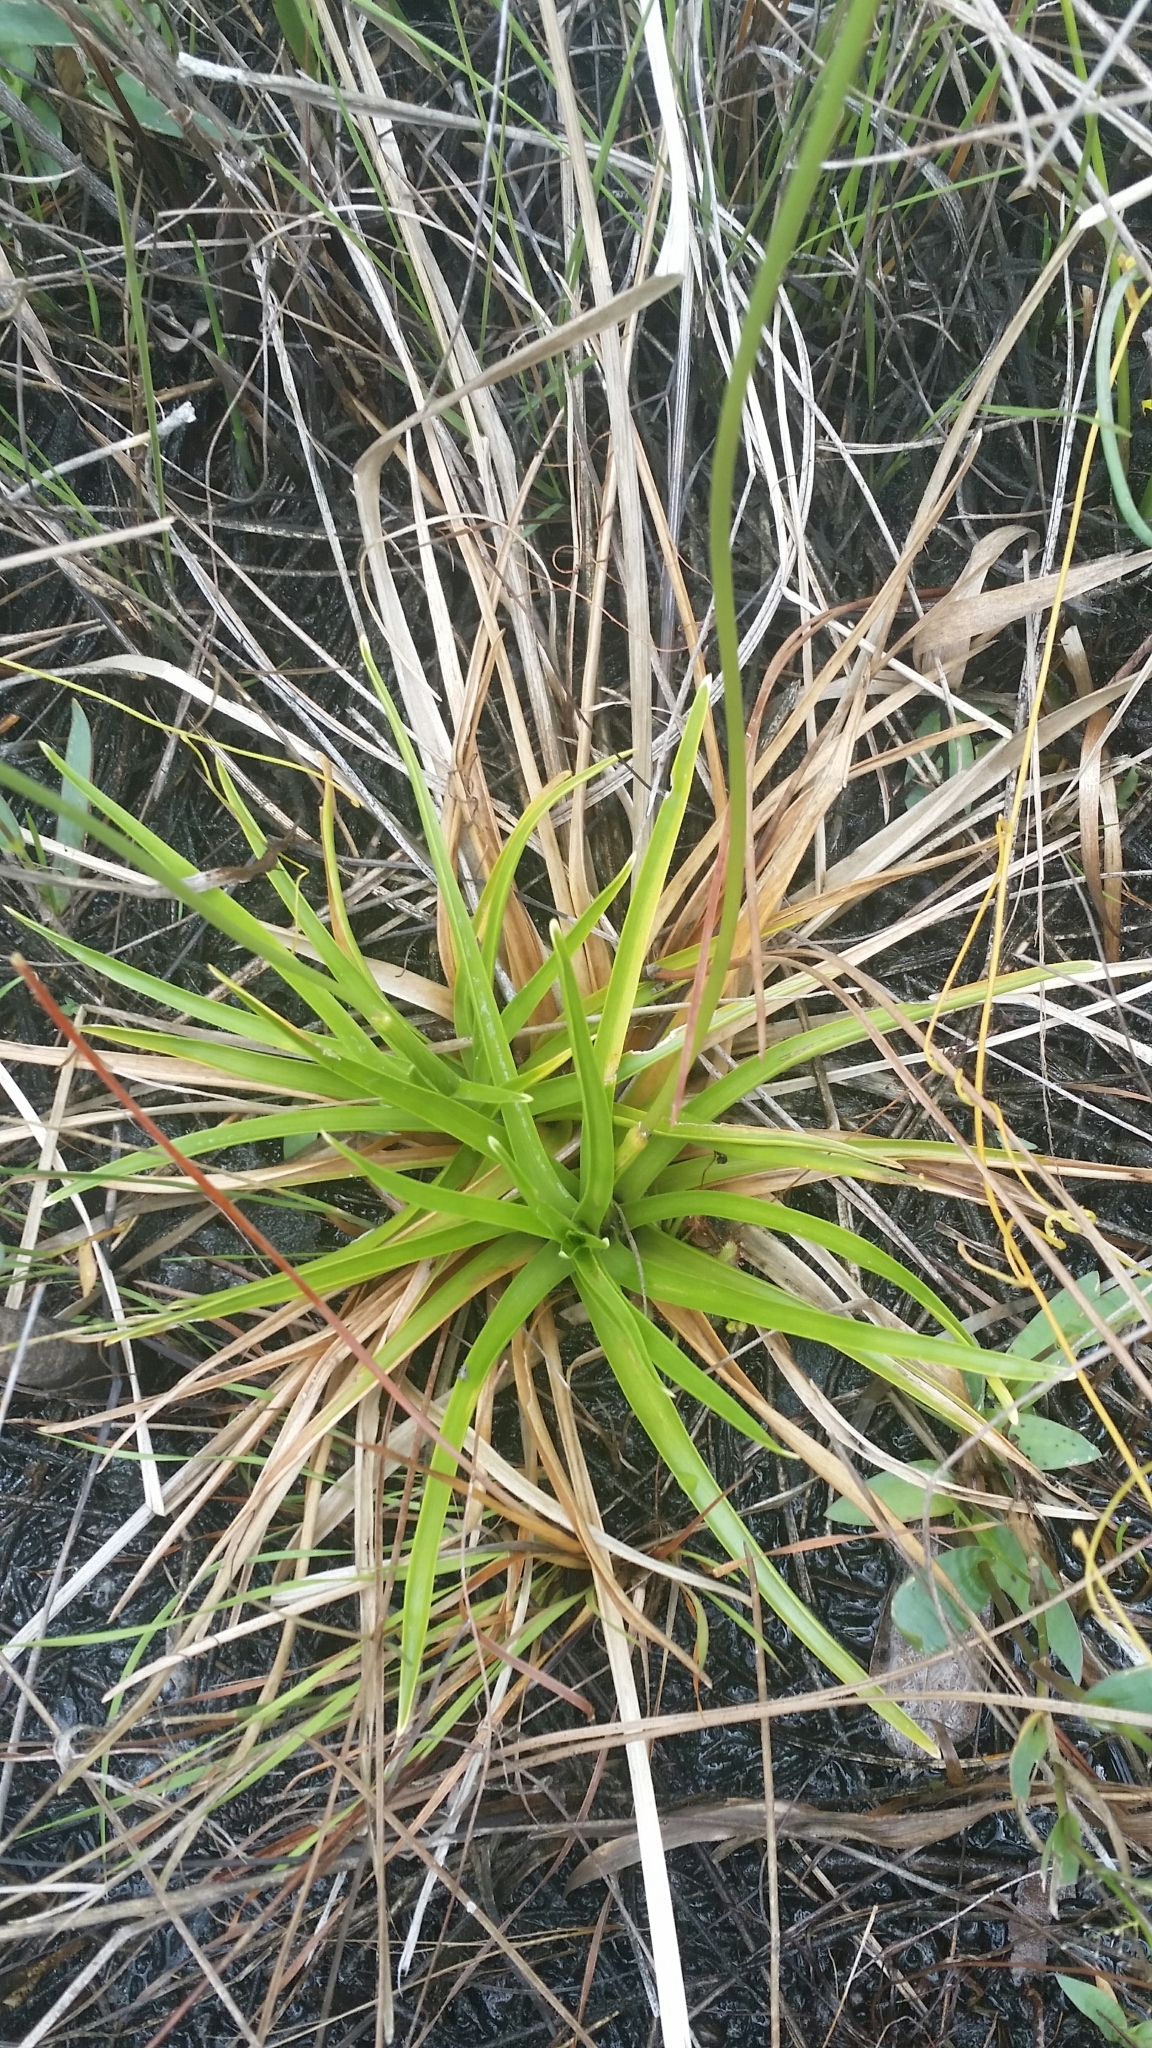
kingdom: Plantae
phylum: Tracheophyta
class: Liliopsida
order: Poales
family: Eriocaulaceae
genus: Eriocaulon
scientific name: Eriocaulon decangulare
